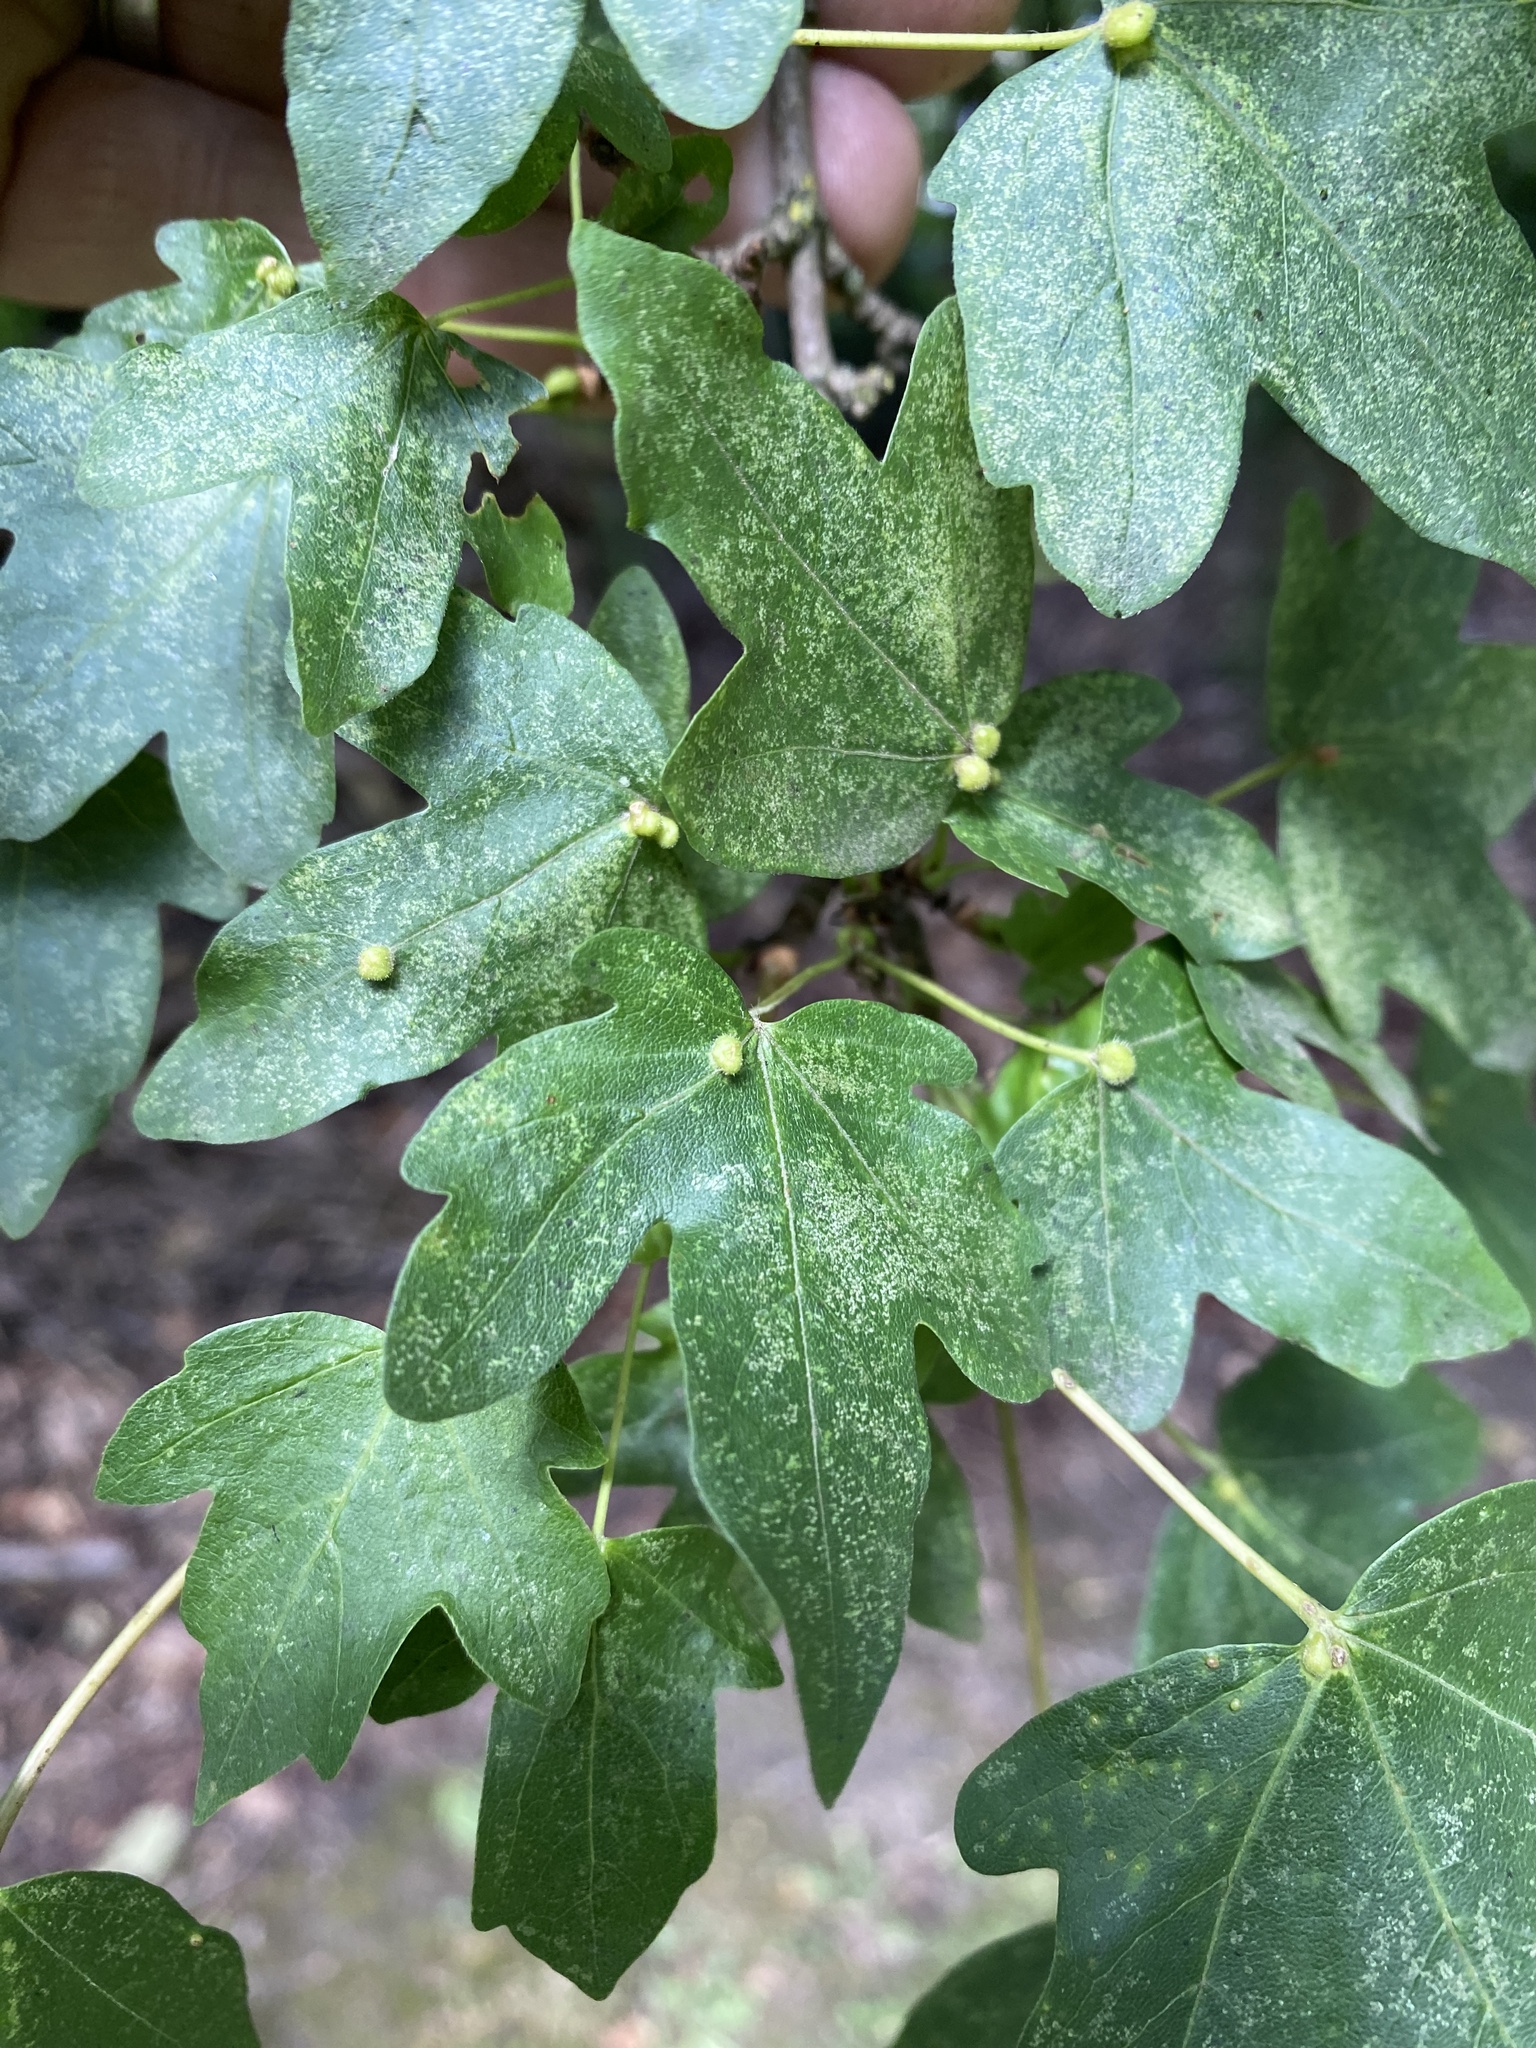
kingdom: Animalia
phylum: Arthropoda
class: Arachnida
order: Trombidiformes
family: Eriophyidae
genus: Aceria
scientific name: Aceria macrochelus
